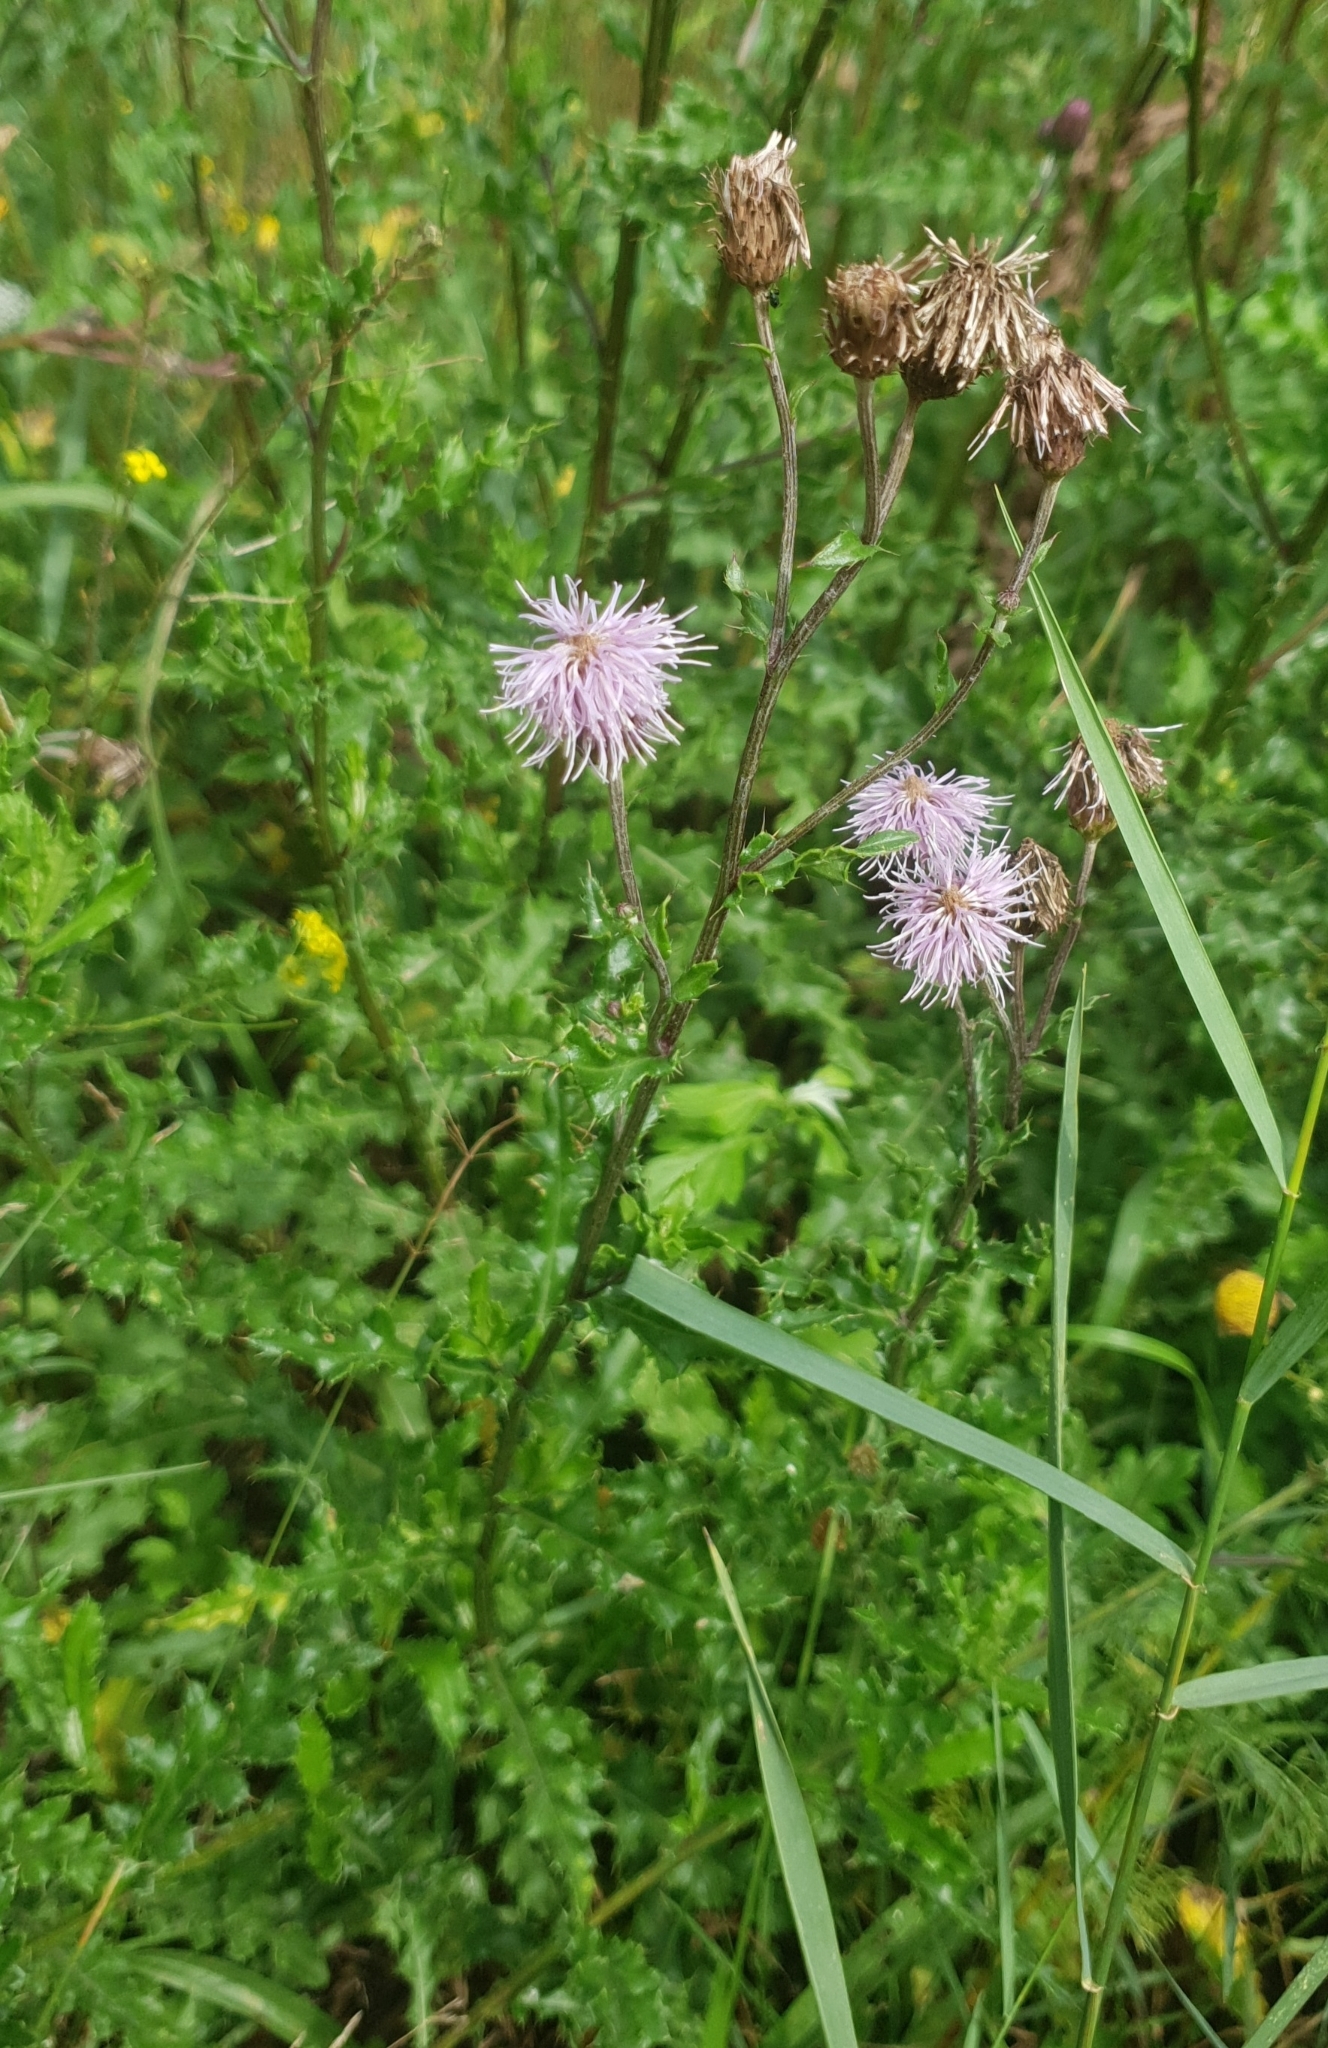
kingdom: Plantae
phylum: Tracheophyta
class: Magnoliopsida
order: Asterales
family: Asteraceae
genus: Cirsium
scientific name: Cirsium arvense
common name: Creeping thistle
